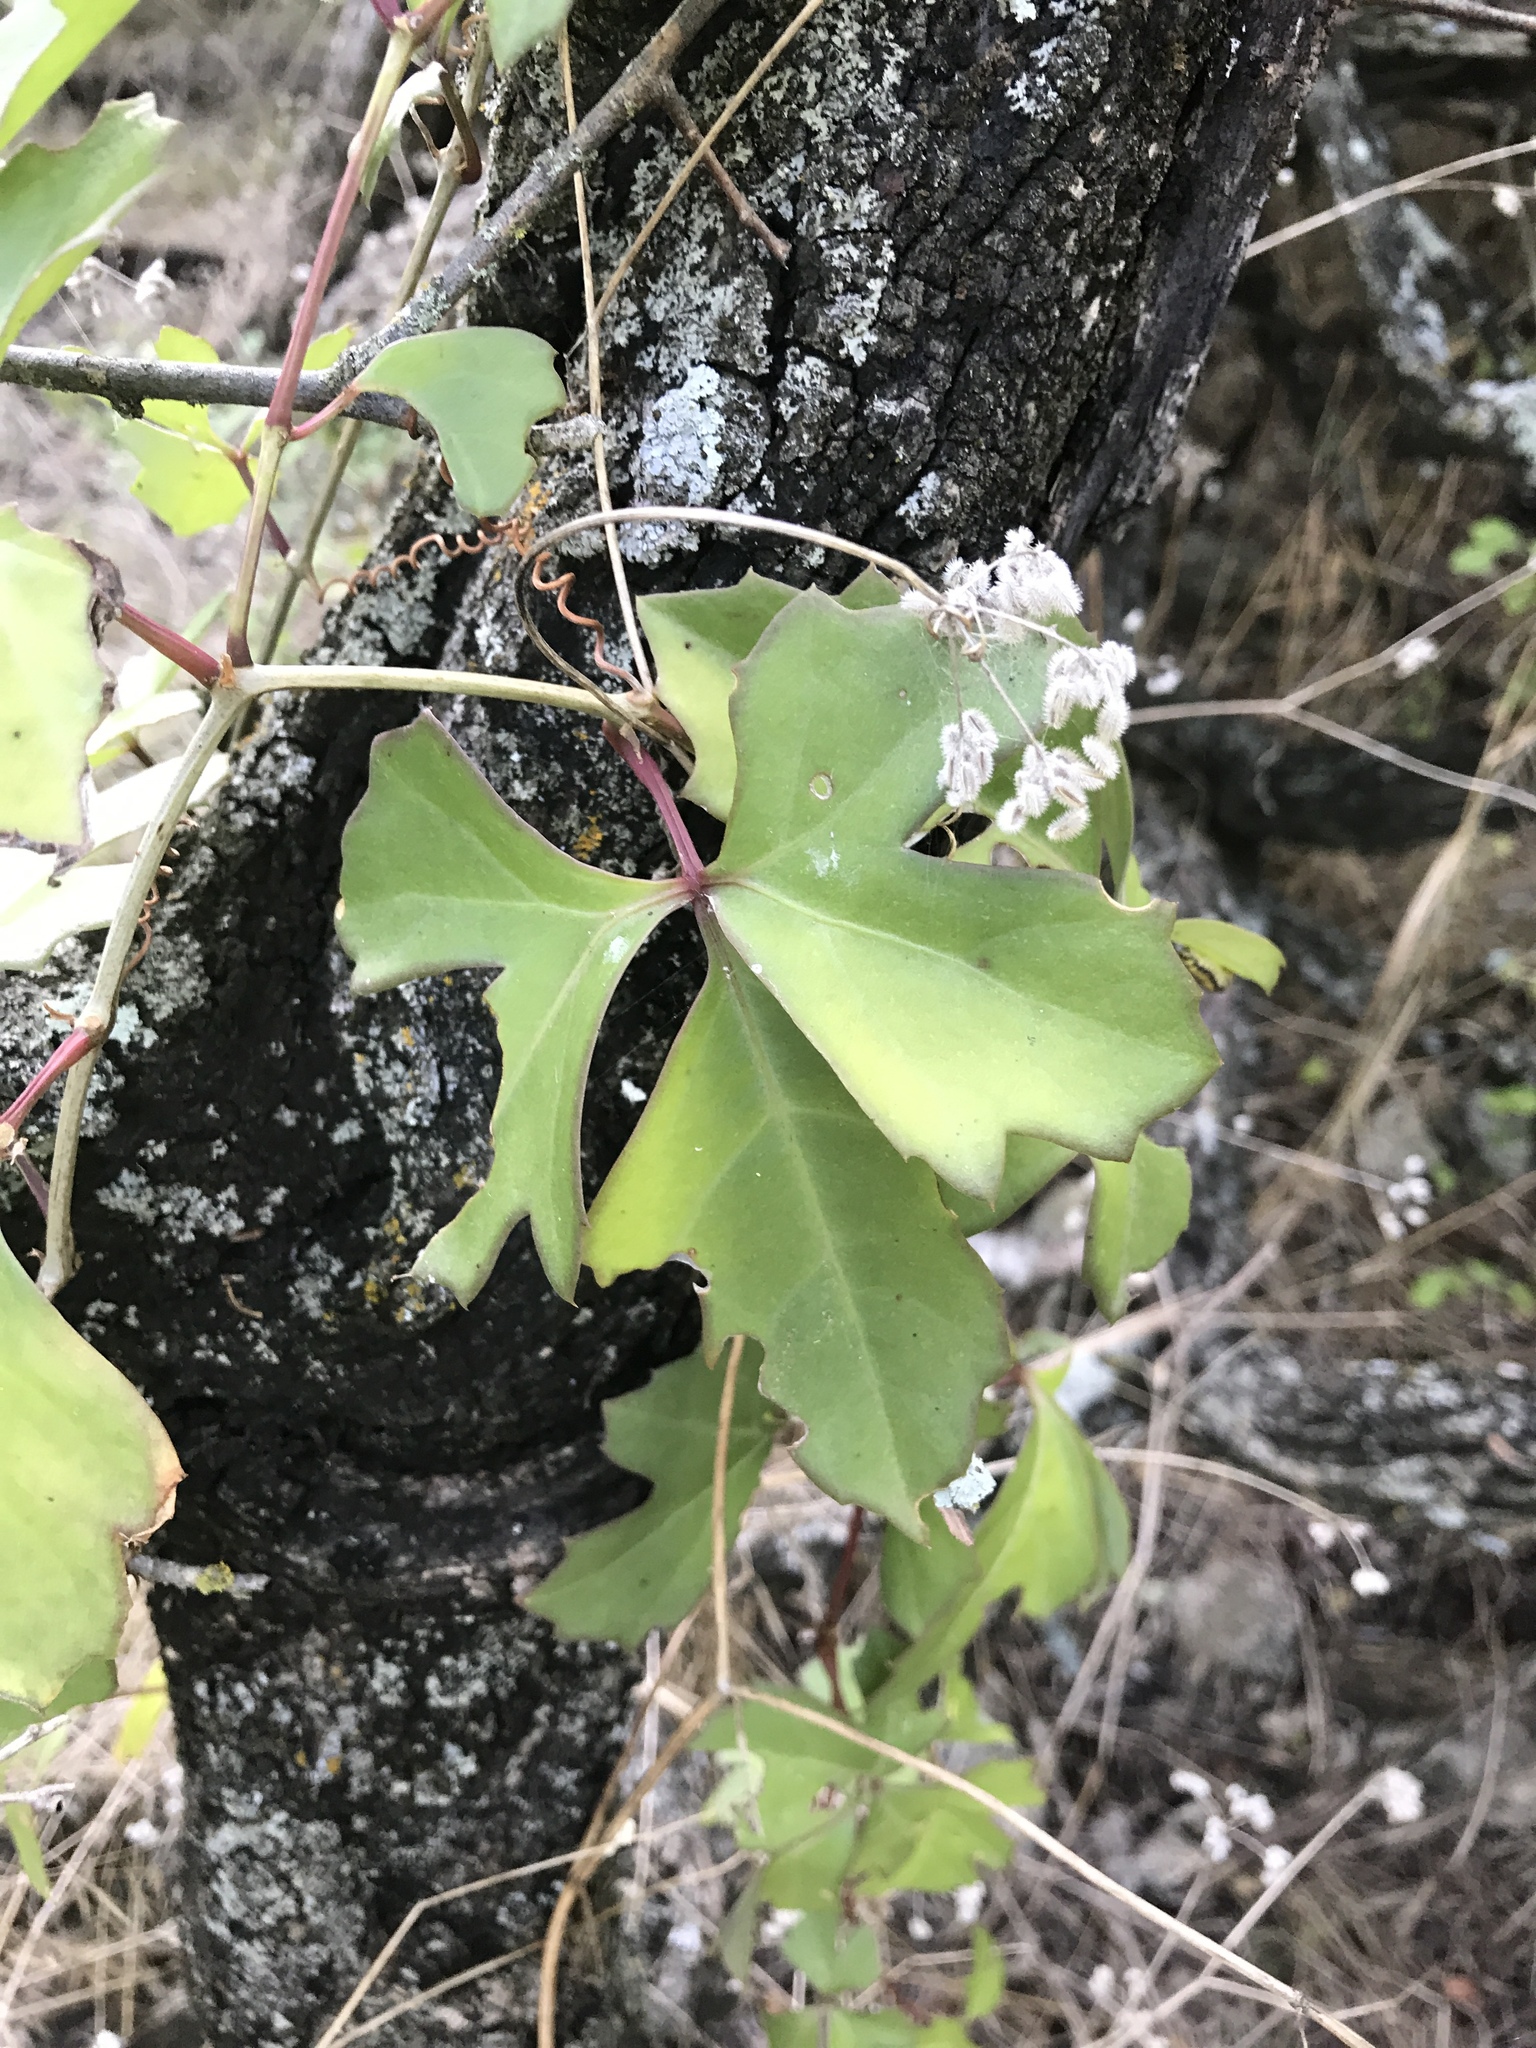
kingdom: Plantae
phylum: Tracheophyta
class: Magnoliopsida
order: Vitales
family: Vitaceae
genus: Cissus
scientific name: Cissus trifoliata
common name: Vine-sorrel
